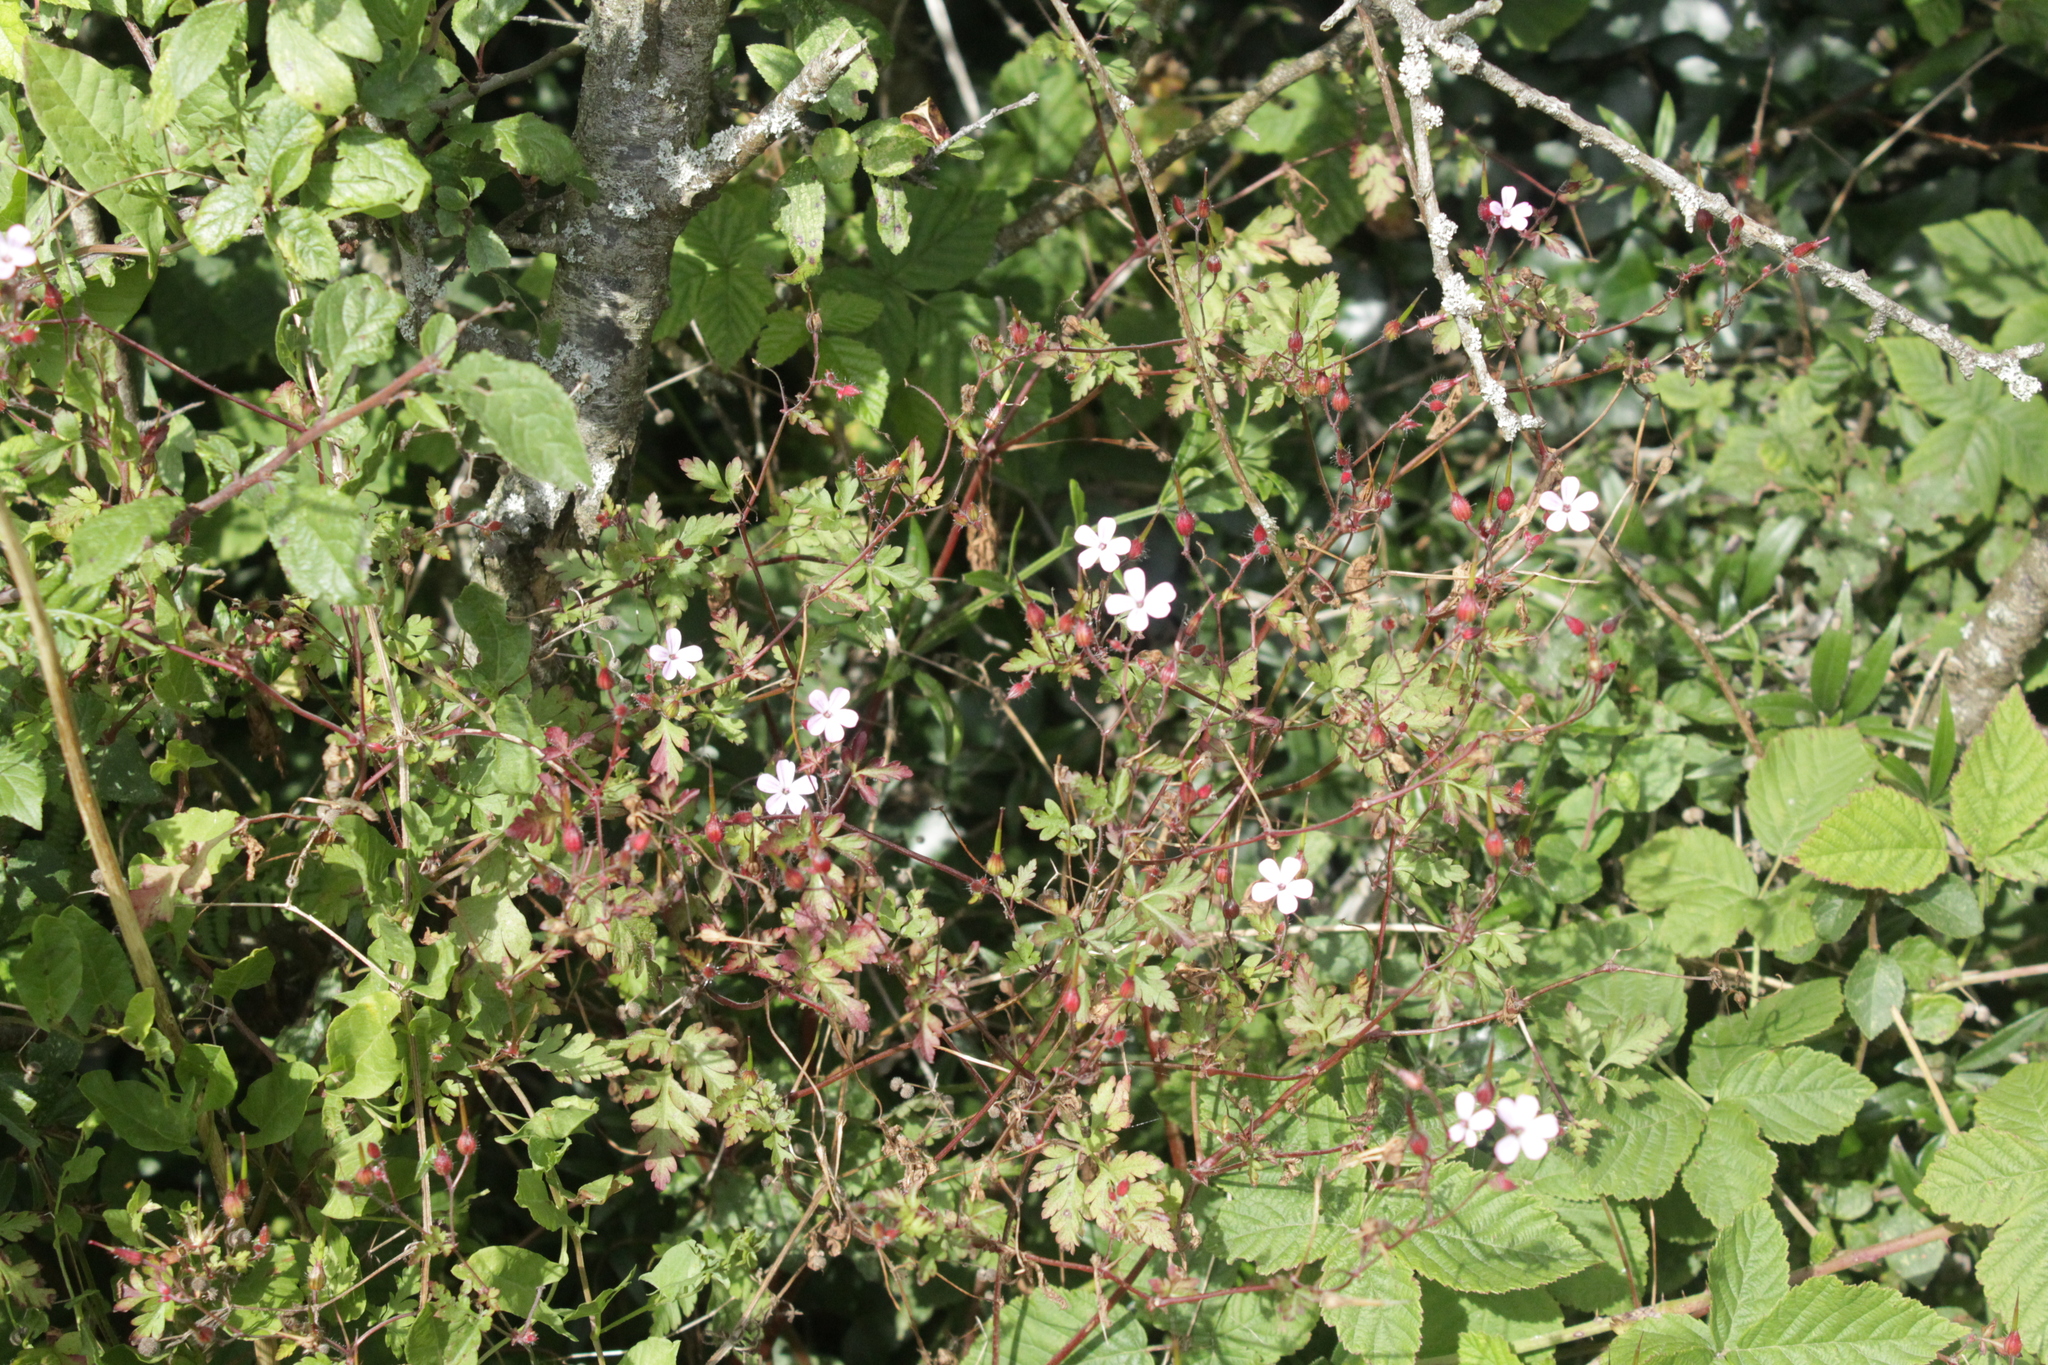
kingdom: Plantae
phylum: Tracheophyta
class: Magnoliopsida
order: Geraniales
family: Geraniaceae
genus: Geranium
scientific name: Geranium robertianum
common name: Herb-robert
